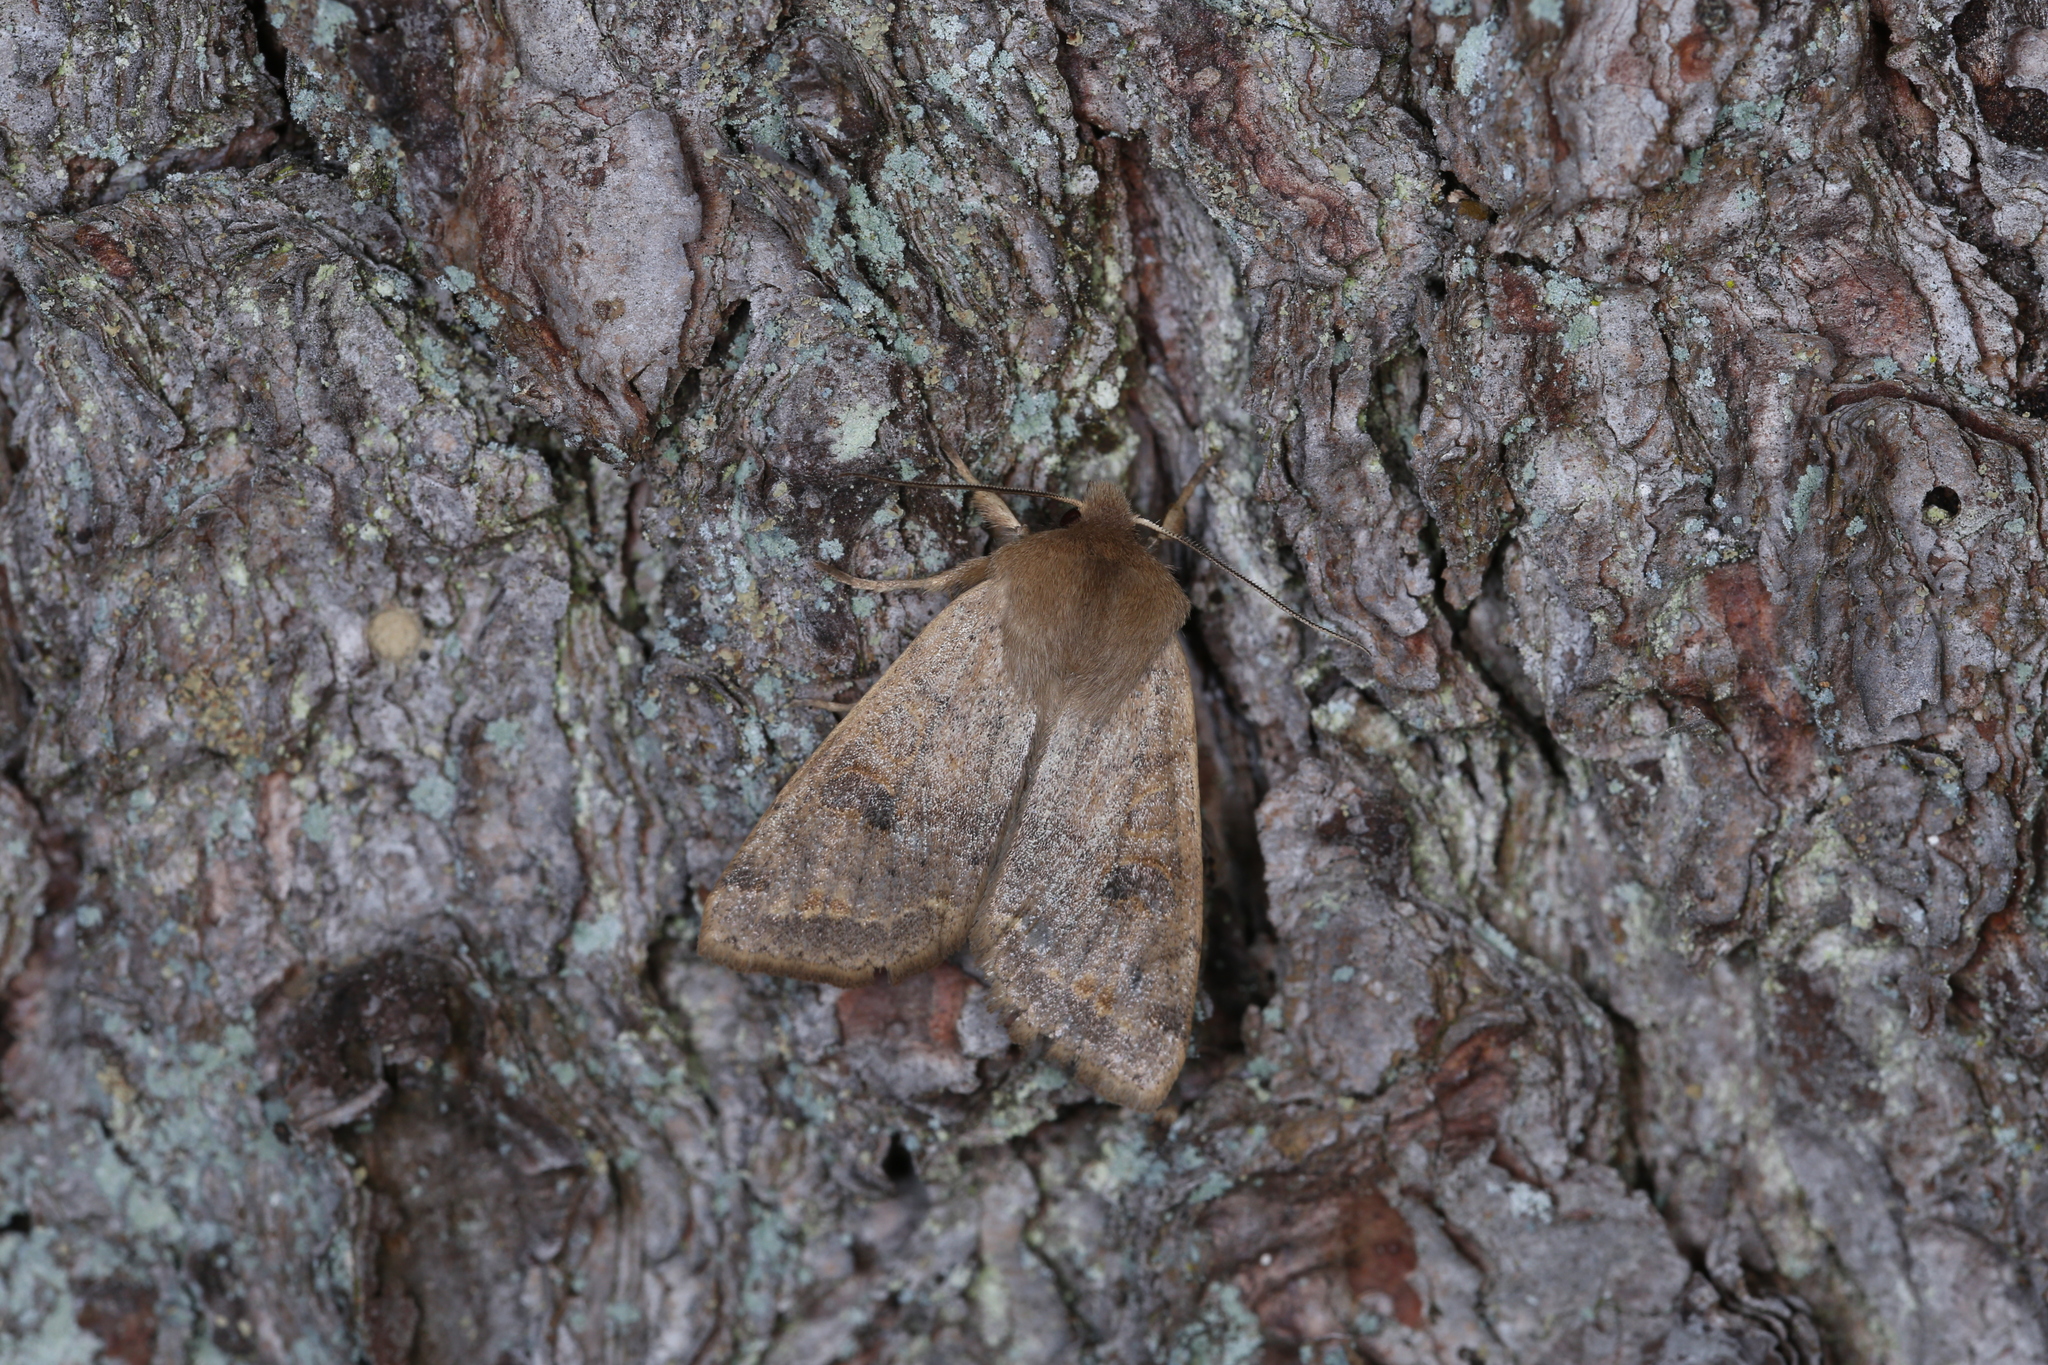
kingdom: Animalia
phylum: Arthropoda
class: Insecta
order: Lepidoptera
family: Noctuidae
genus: Anorthoa
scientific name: Anorthoa munda
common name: Twin-spotted quaker
